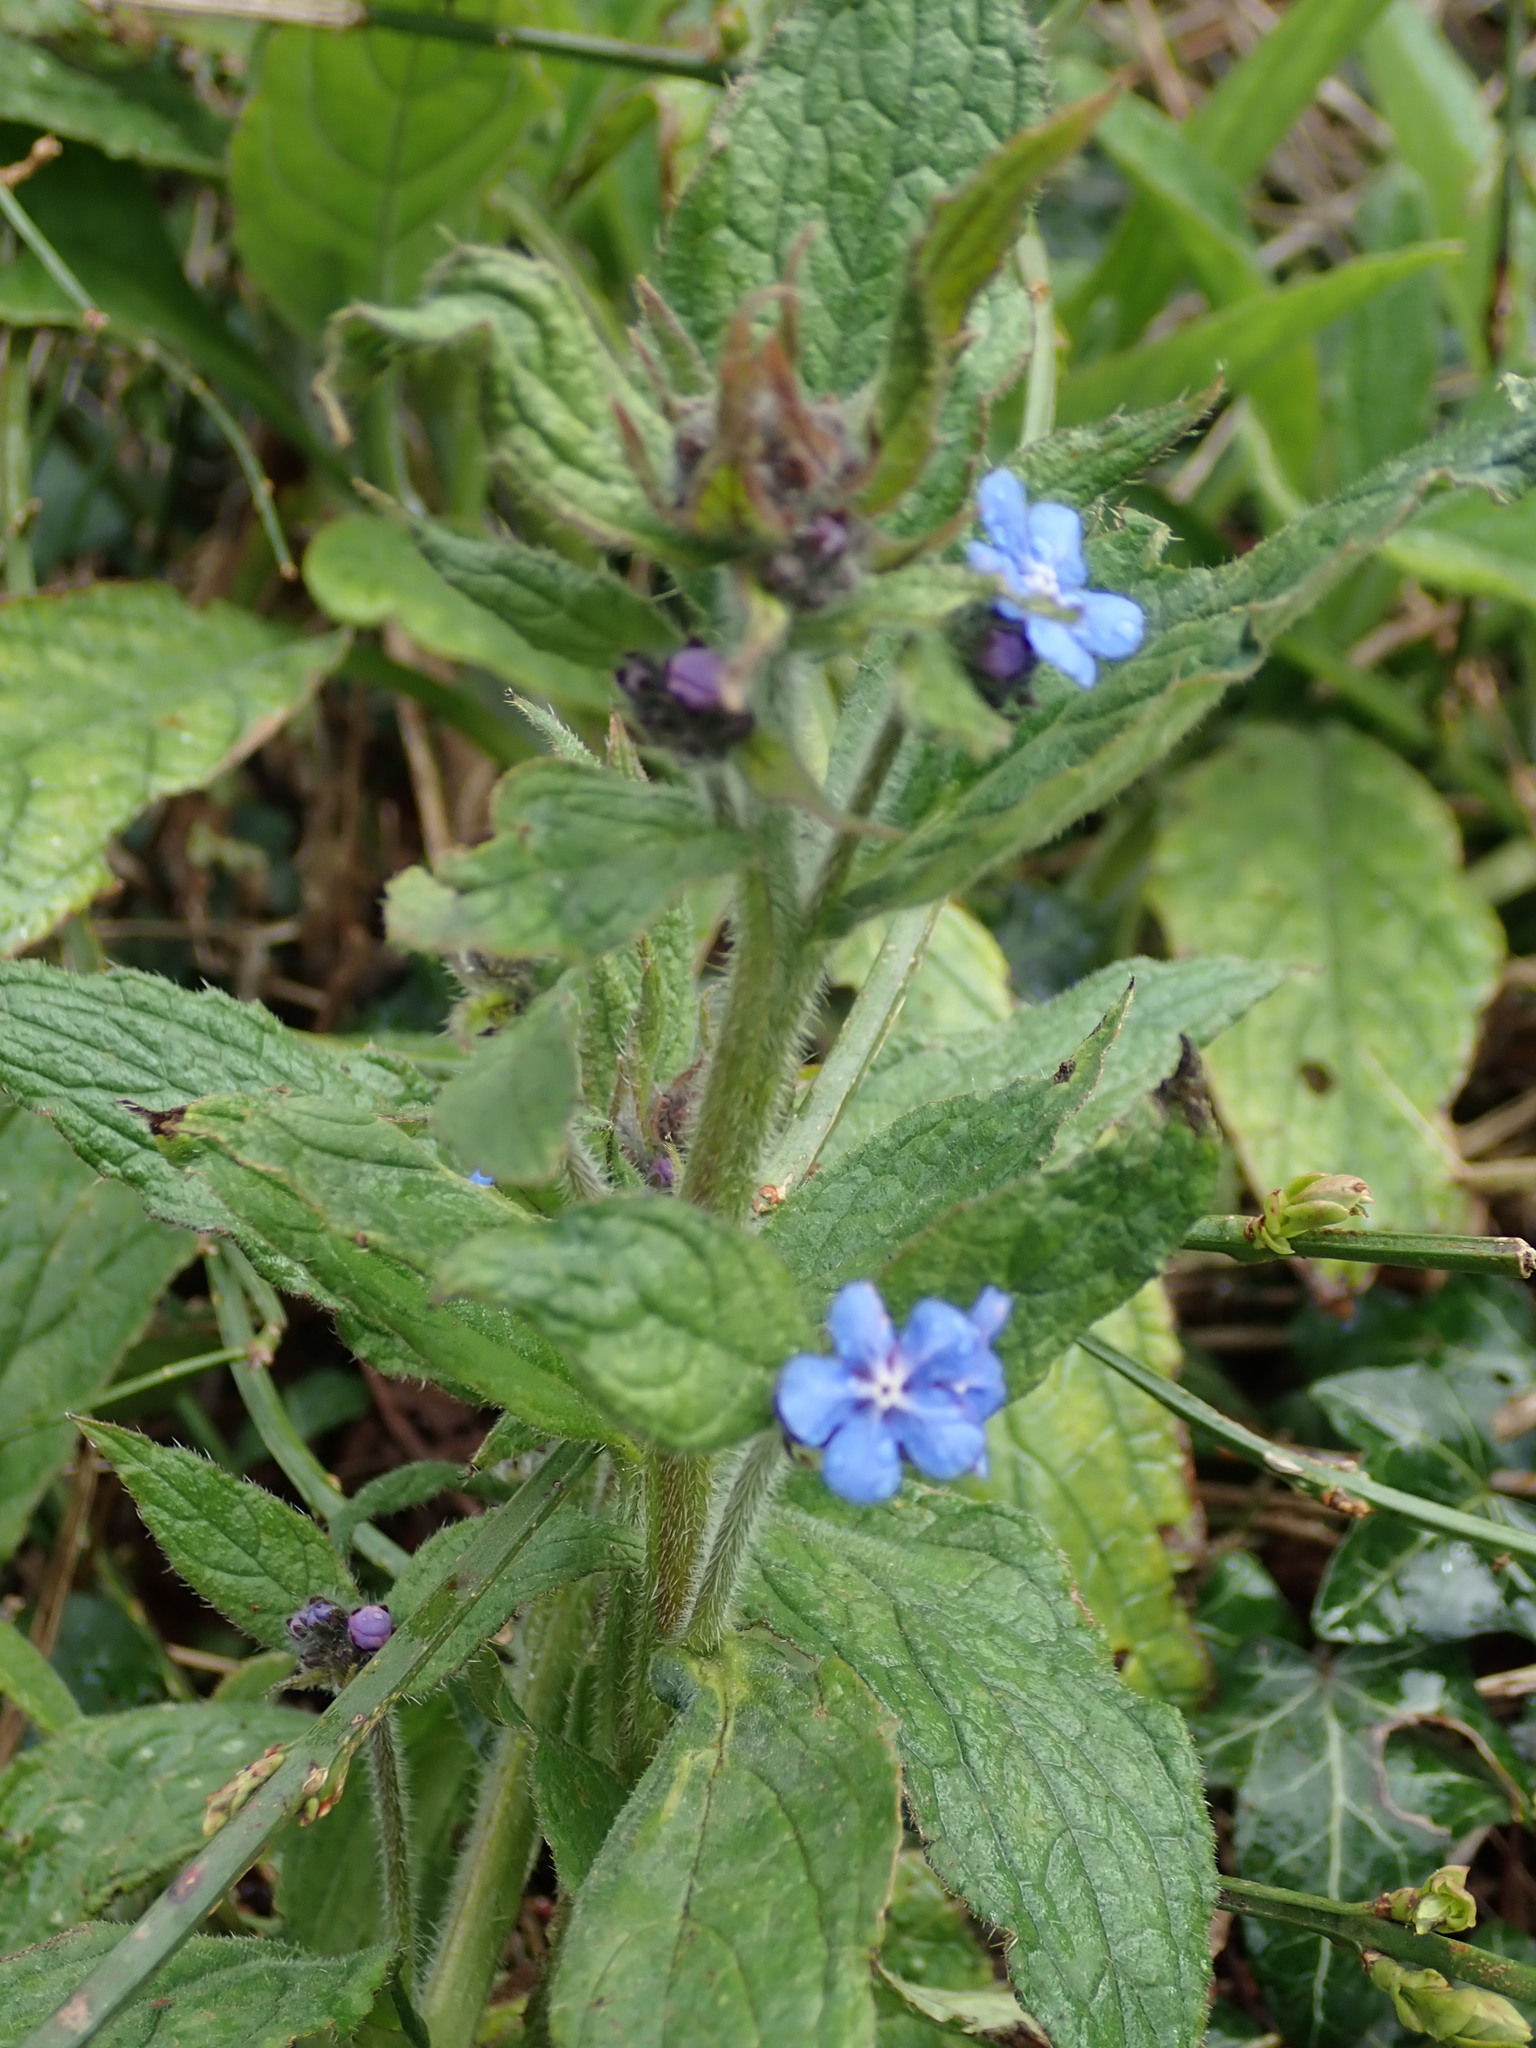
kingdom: Plantae
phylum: Tracheophyta
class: Magnoliopsida
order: Boraginales
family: Boraginaceae
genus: Pentaglottis
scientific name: Pentaglottis sempervirens
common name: Green alkanet
